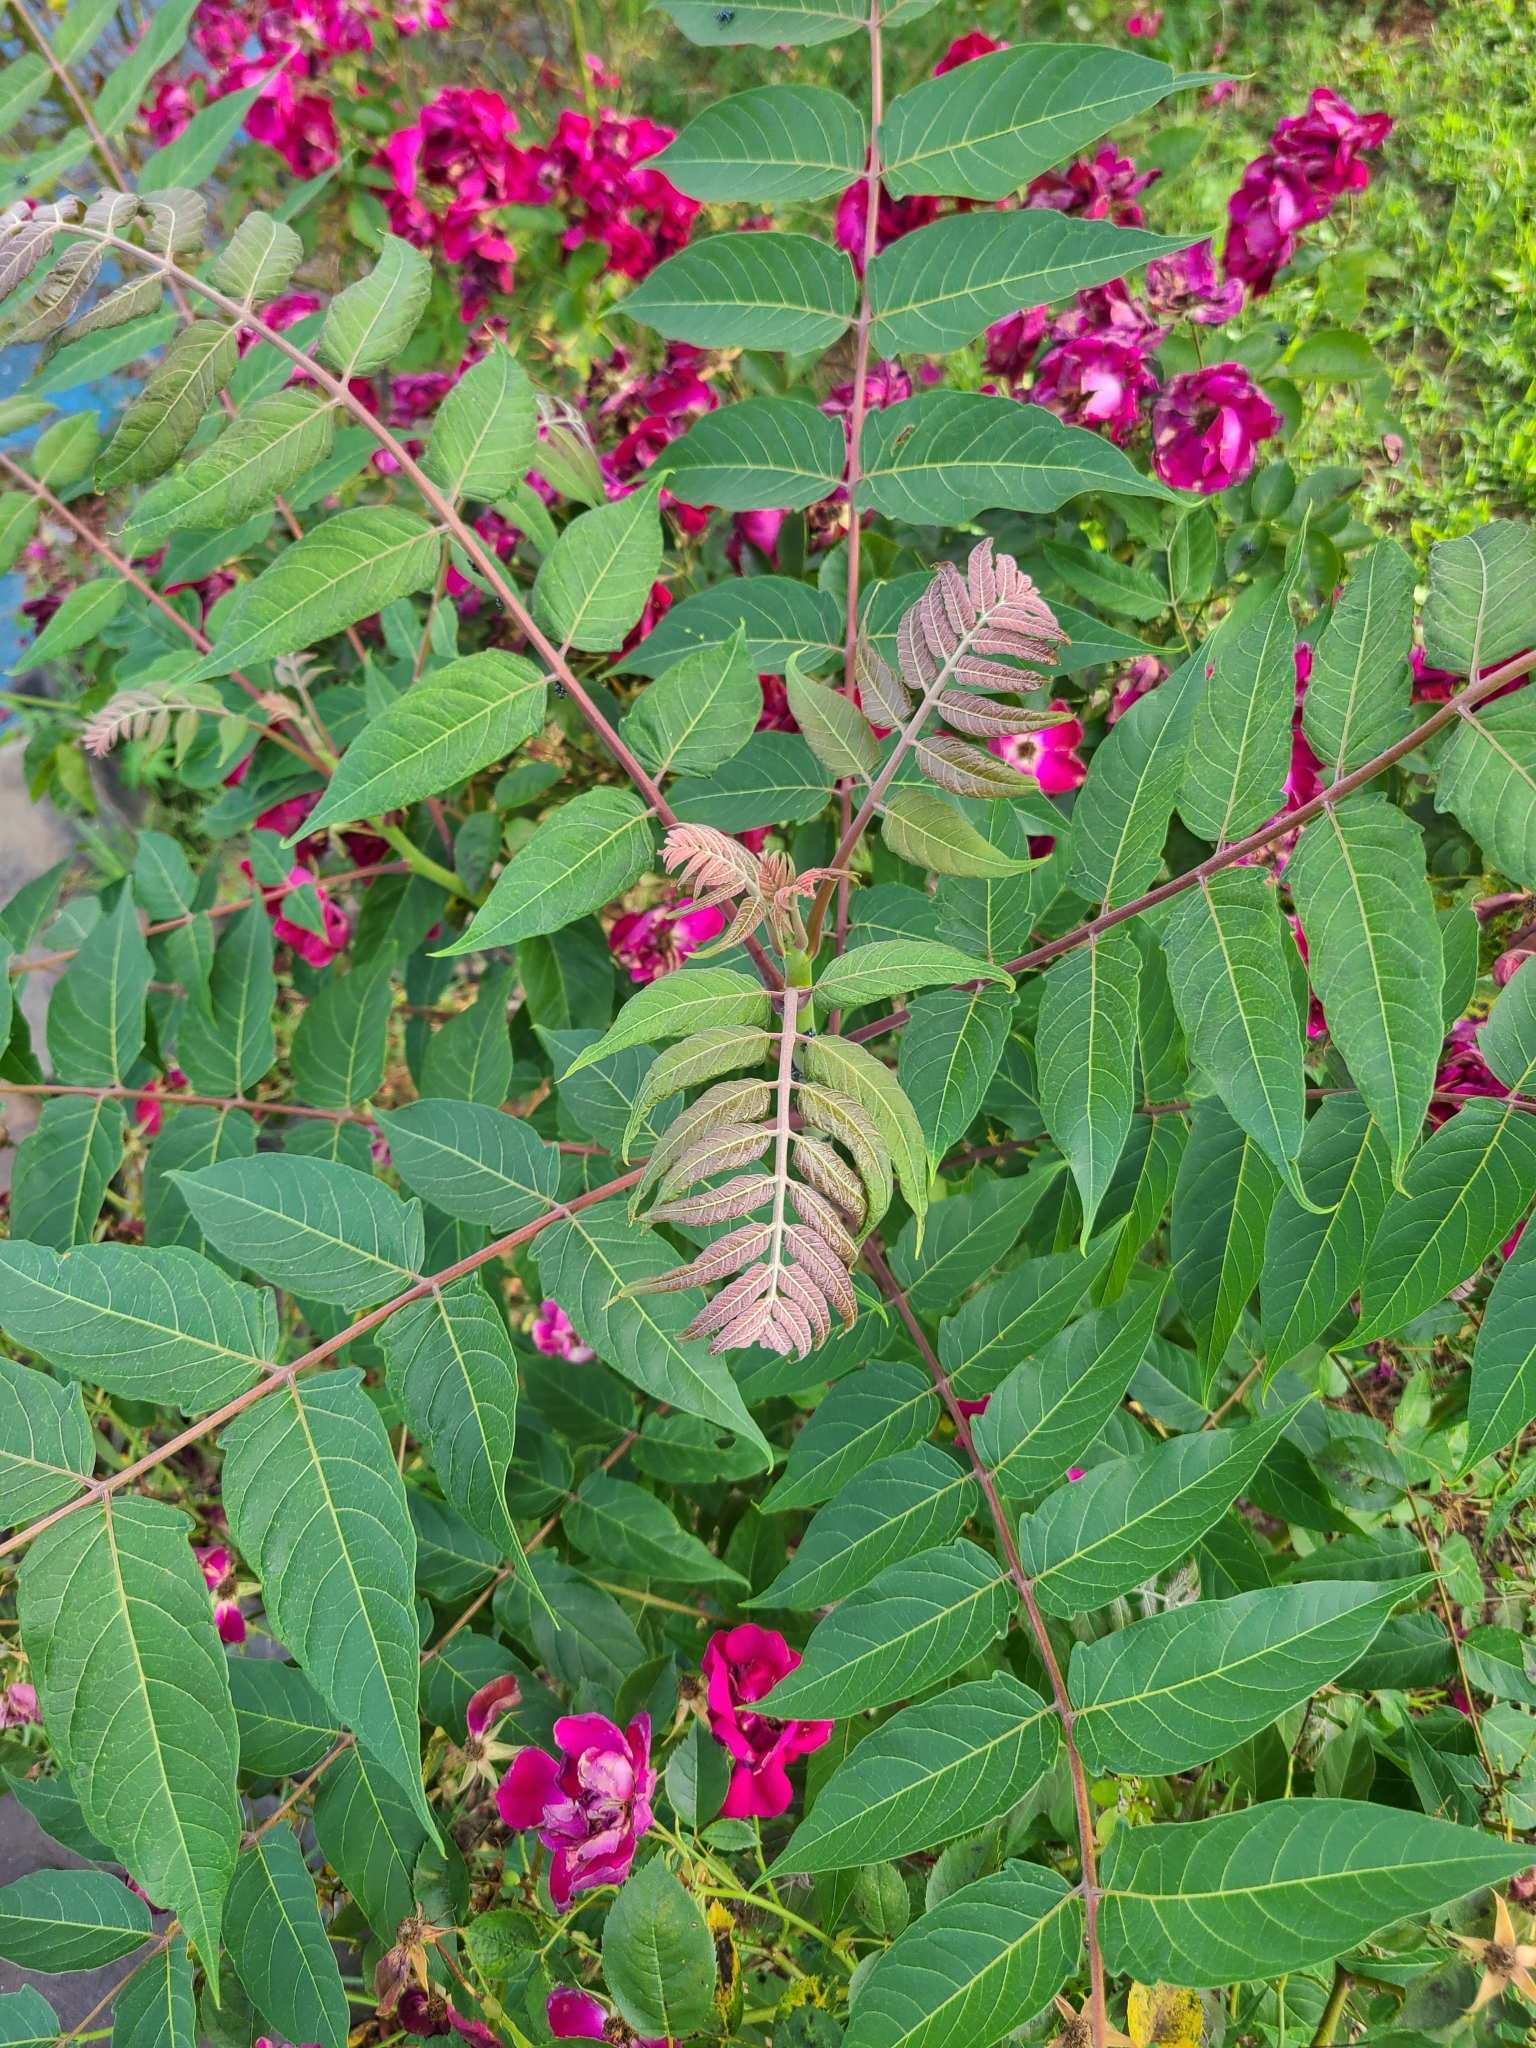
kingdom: Plantae
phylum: Tracheophyta
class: Magnoliopsida
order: Sapindales
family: Simaroubaceae
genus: Ailanthus
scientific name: Ailanthus altissima
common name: Tree-of-heaven
